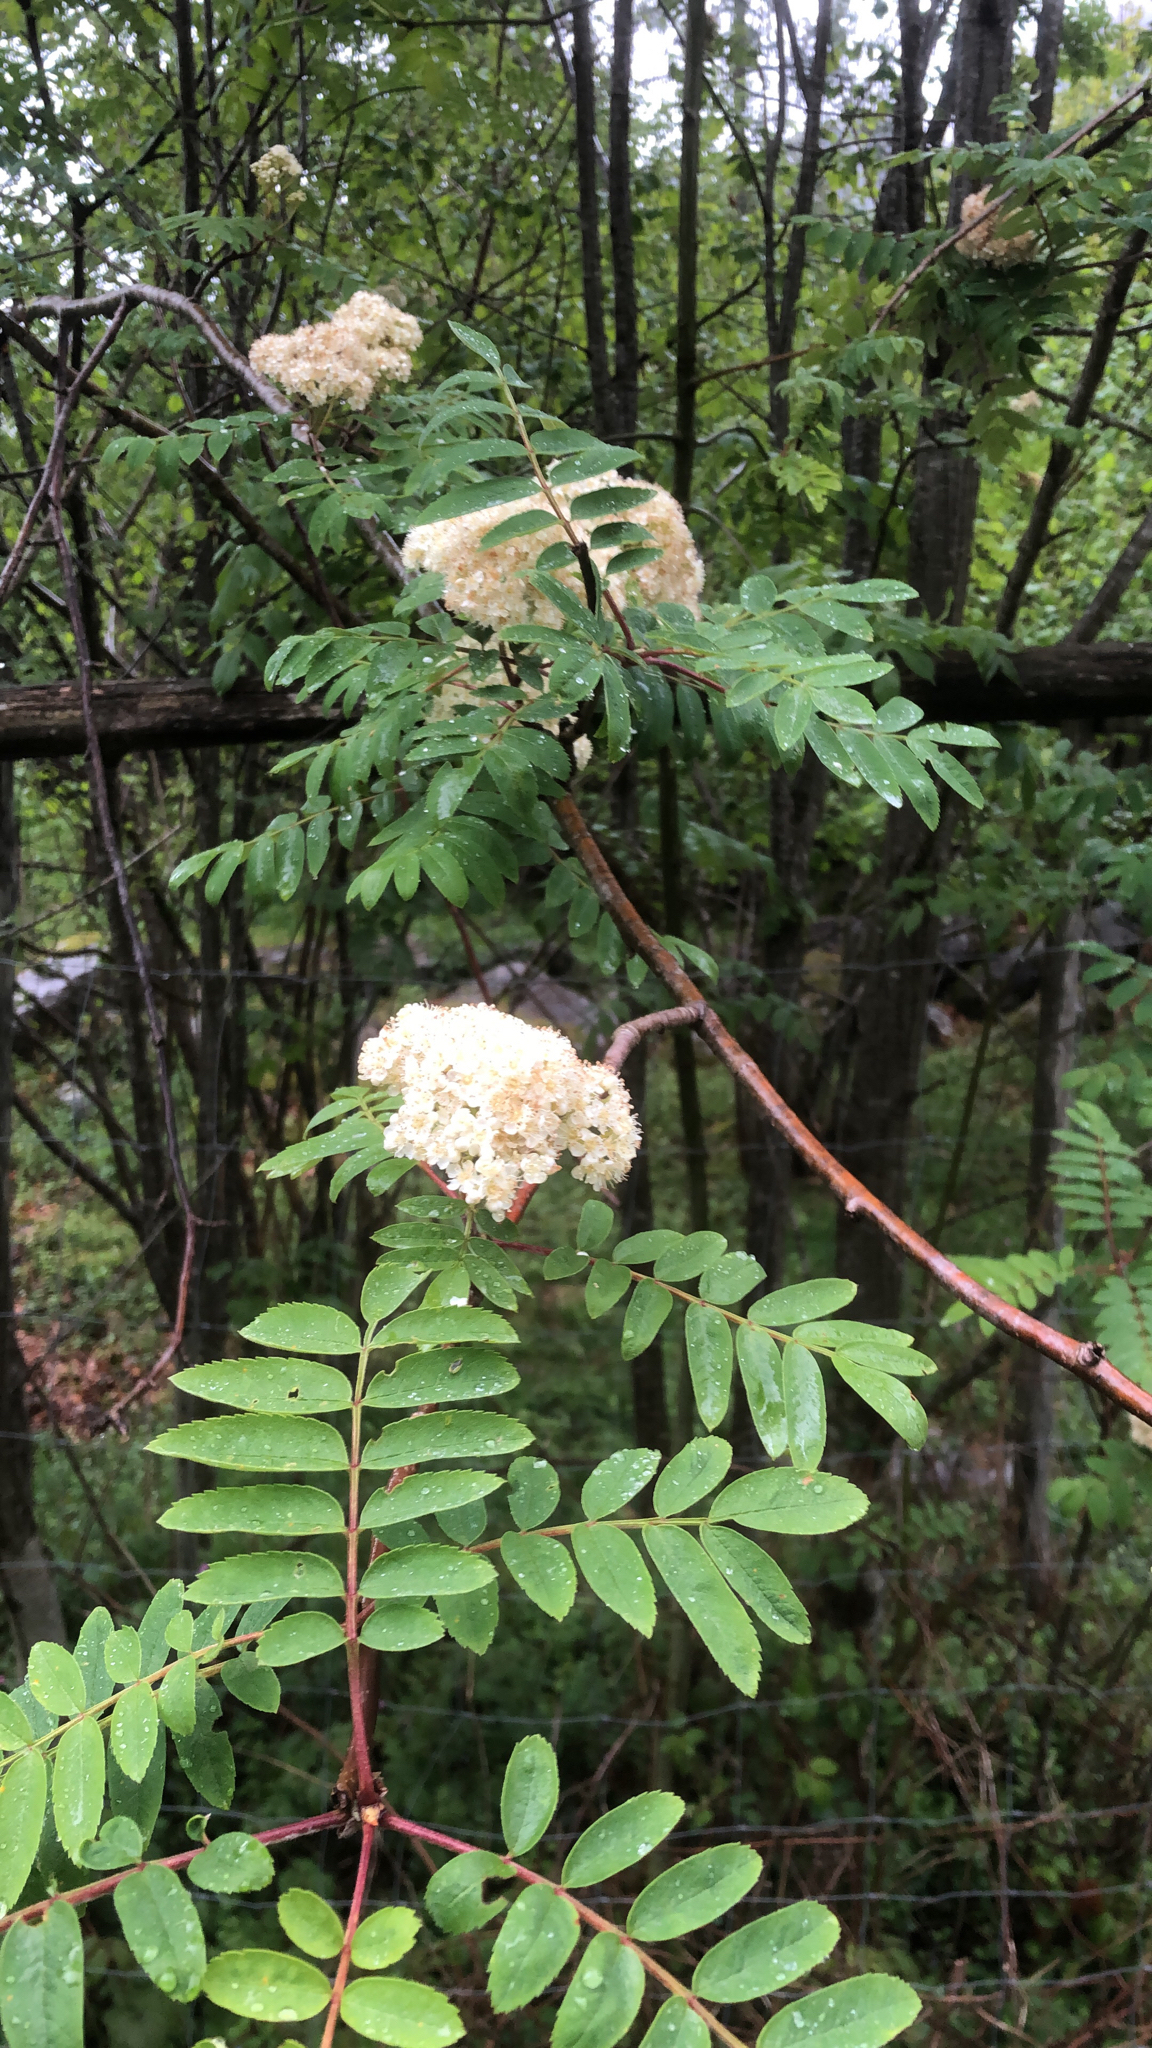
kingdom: Plantae
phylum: Tracheophyta
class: Magnoliopsida
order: Rosales
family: Rosaceae
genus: Sorbus
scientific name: Sorbus aucuparia
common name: Rowan
